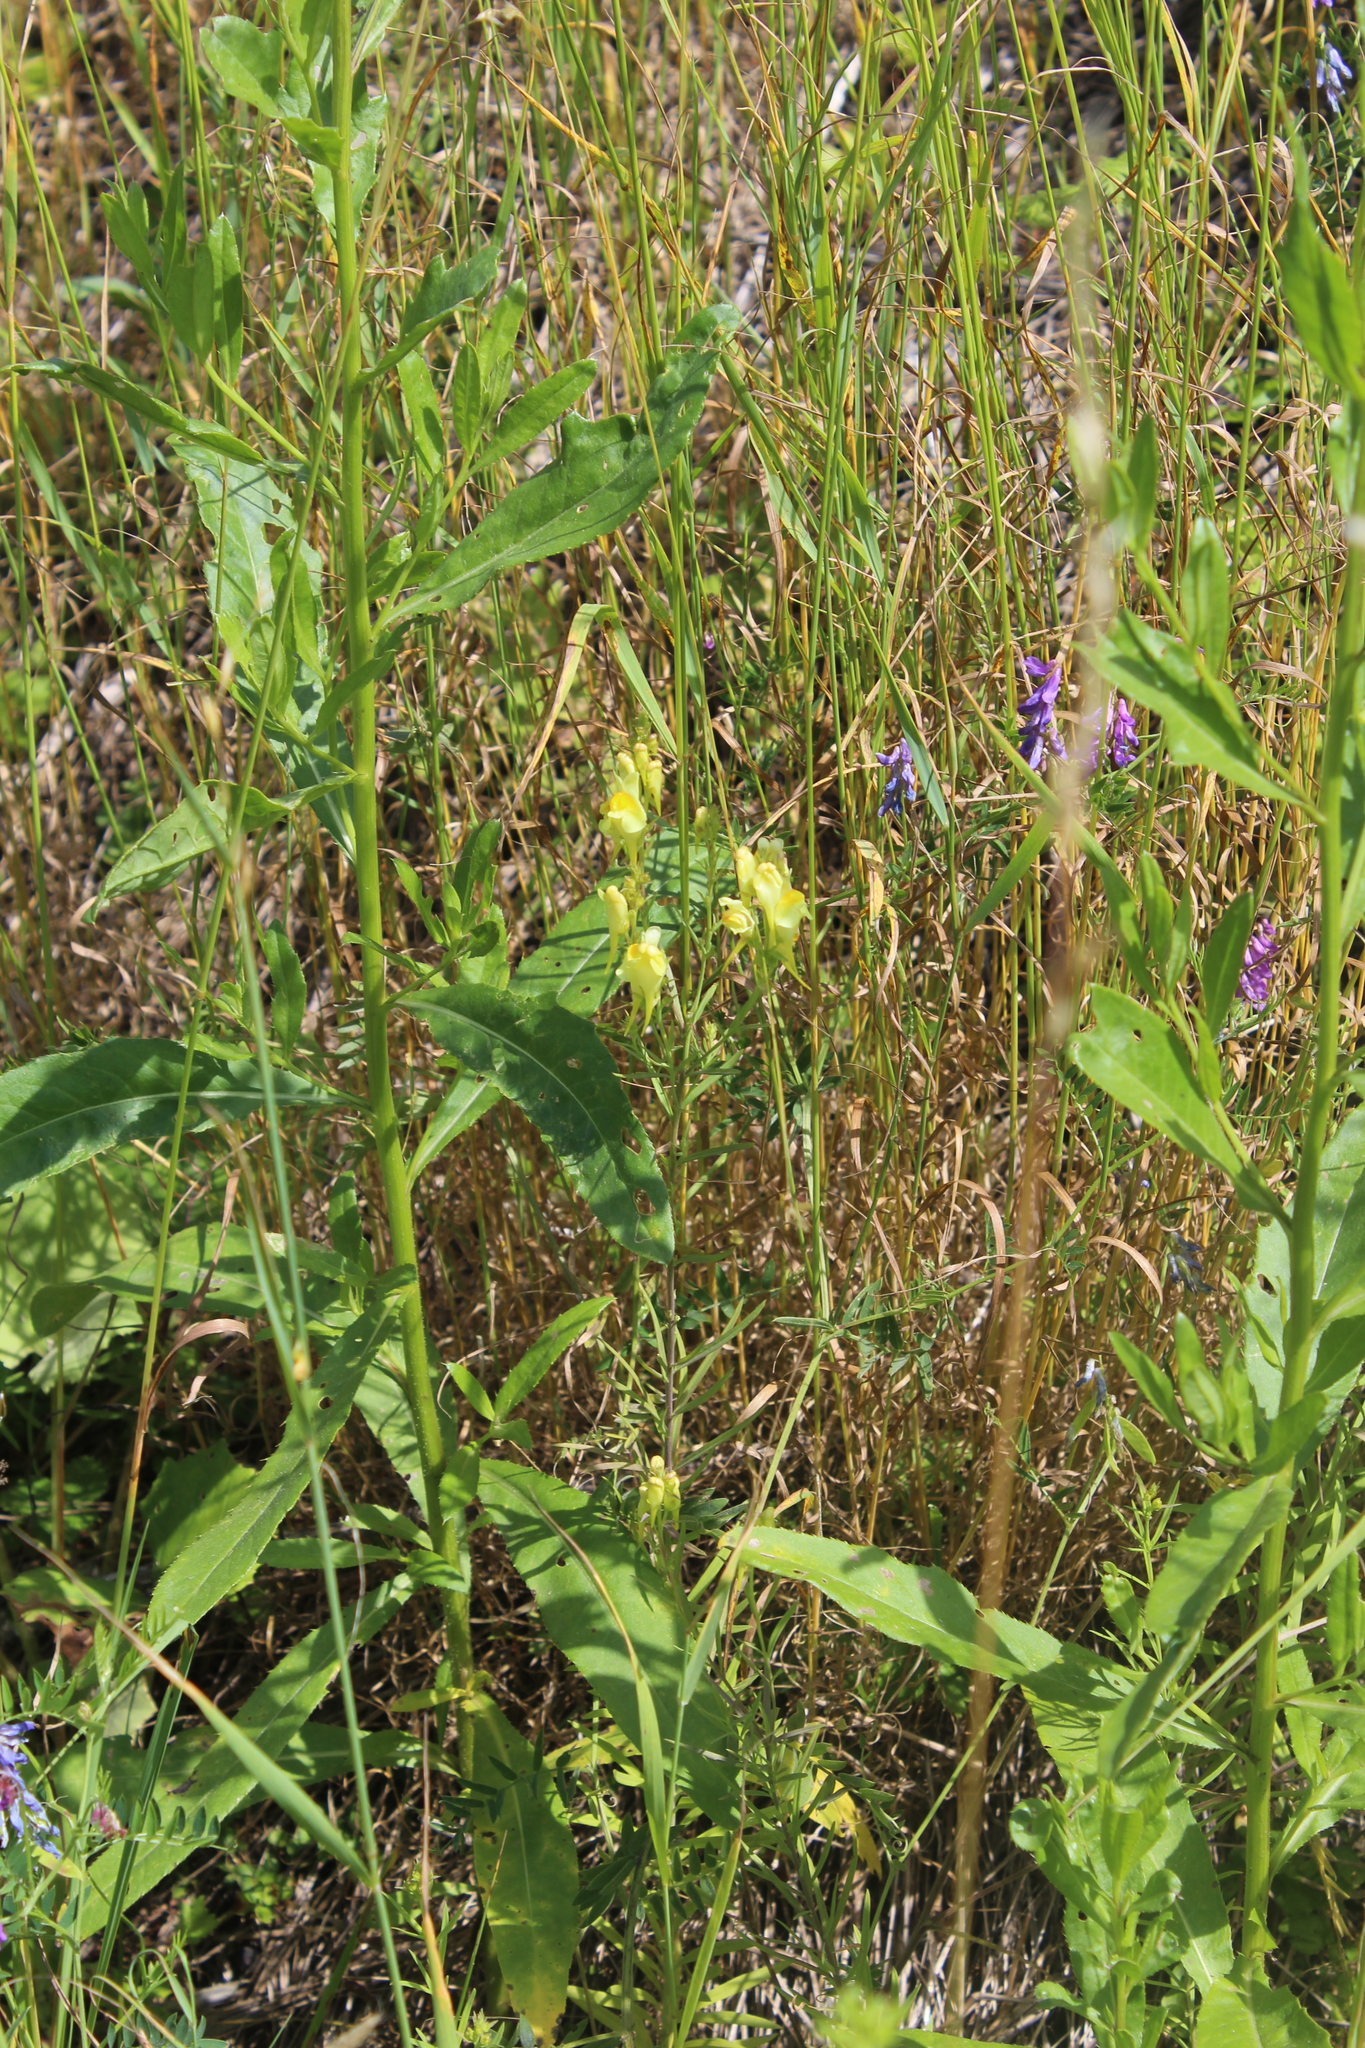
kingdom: Plantae
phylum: Tracheophyta
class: Magnoliopsida
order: Lamiales
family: Plantaginaceae
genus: Linaria
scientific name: Linaria vulgaris
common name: Butter and eggs
